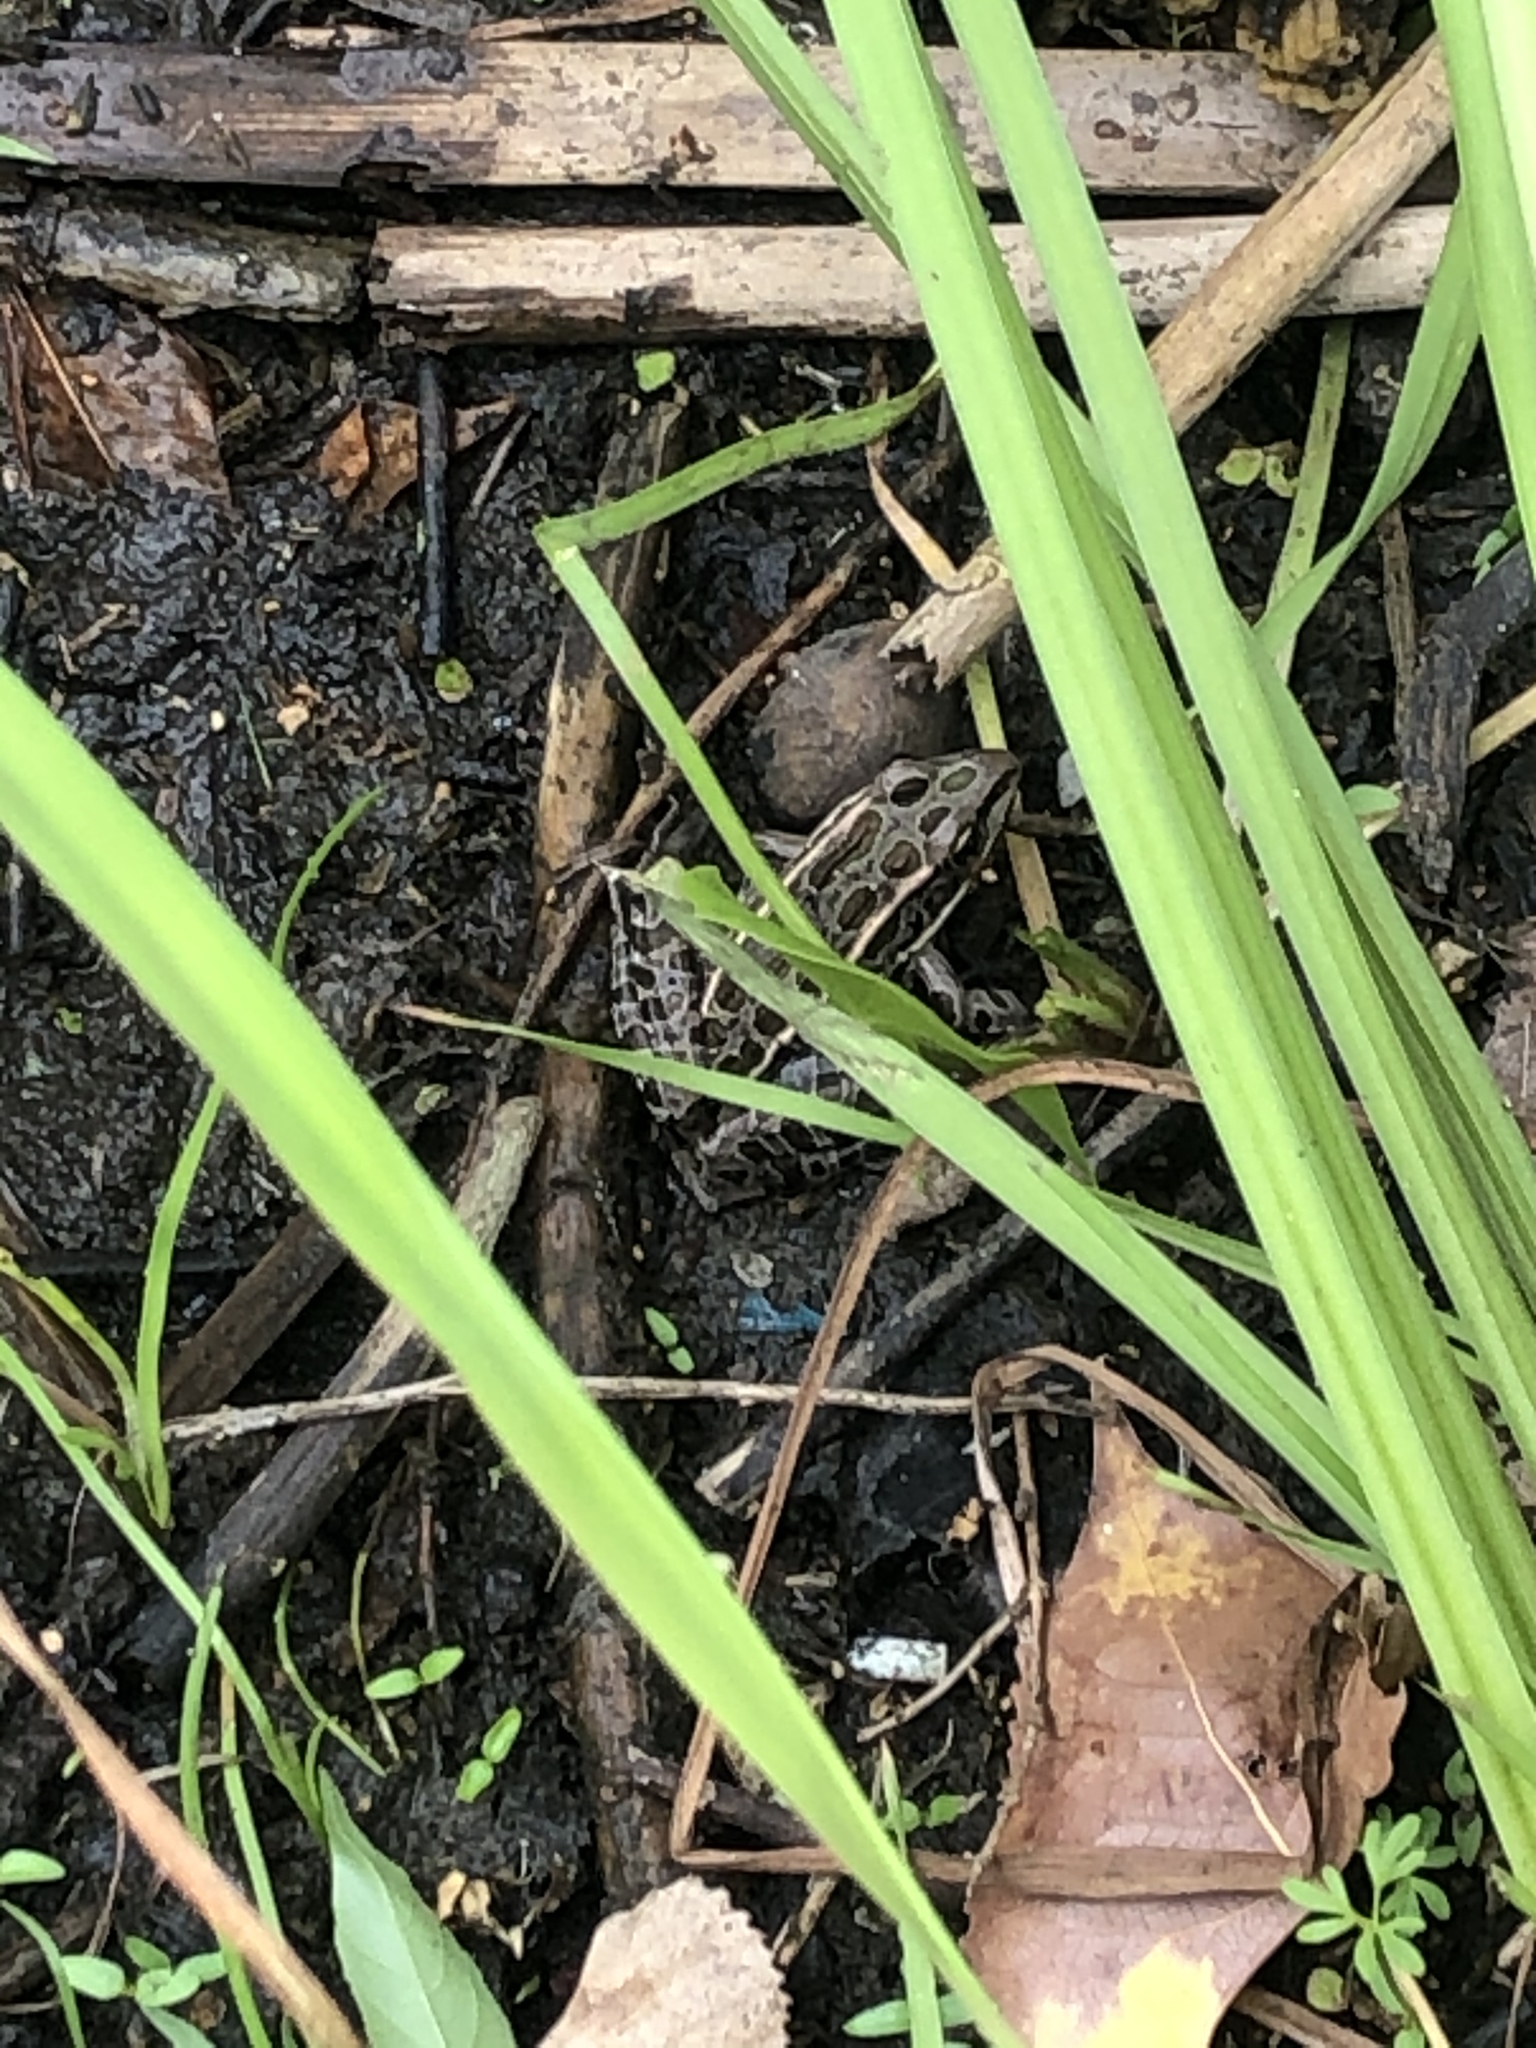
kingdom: Animalia
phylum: Chordata
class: Amphibia
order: Anura
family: Ranidae
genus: Lithobates
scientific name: Lithobates palustris
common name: Pickerel frog
